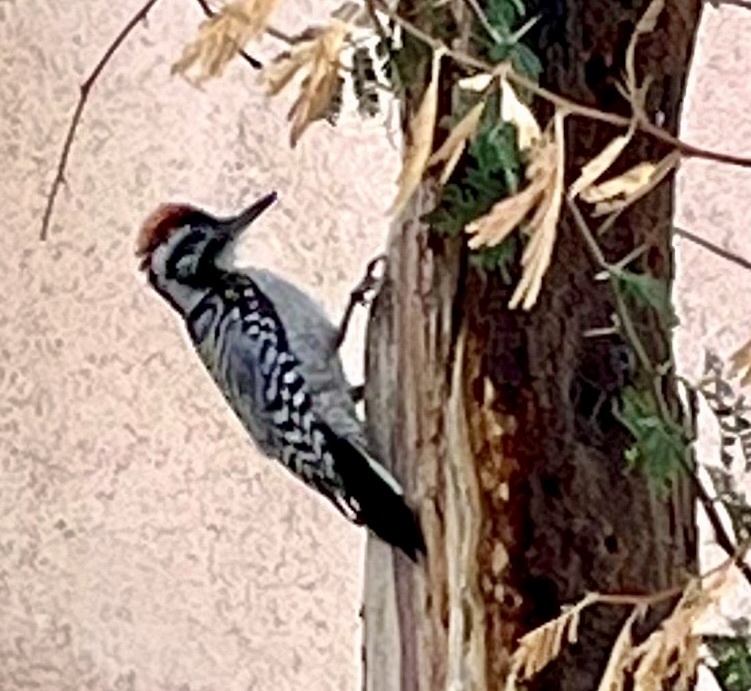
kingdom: Animalia
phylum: Chordata
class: Aves
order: Piciformes
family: Picidae
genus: Dryobates
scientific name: Dryobates scalaris
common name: Ladder-backed woodpecker
